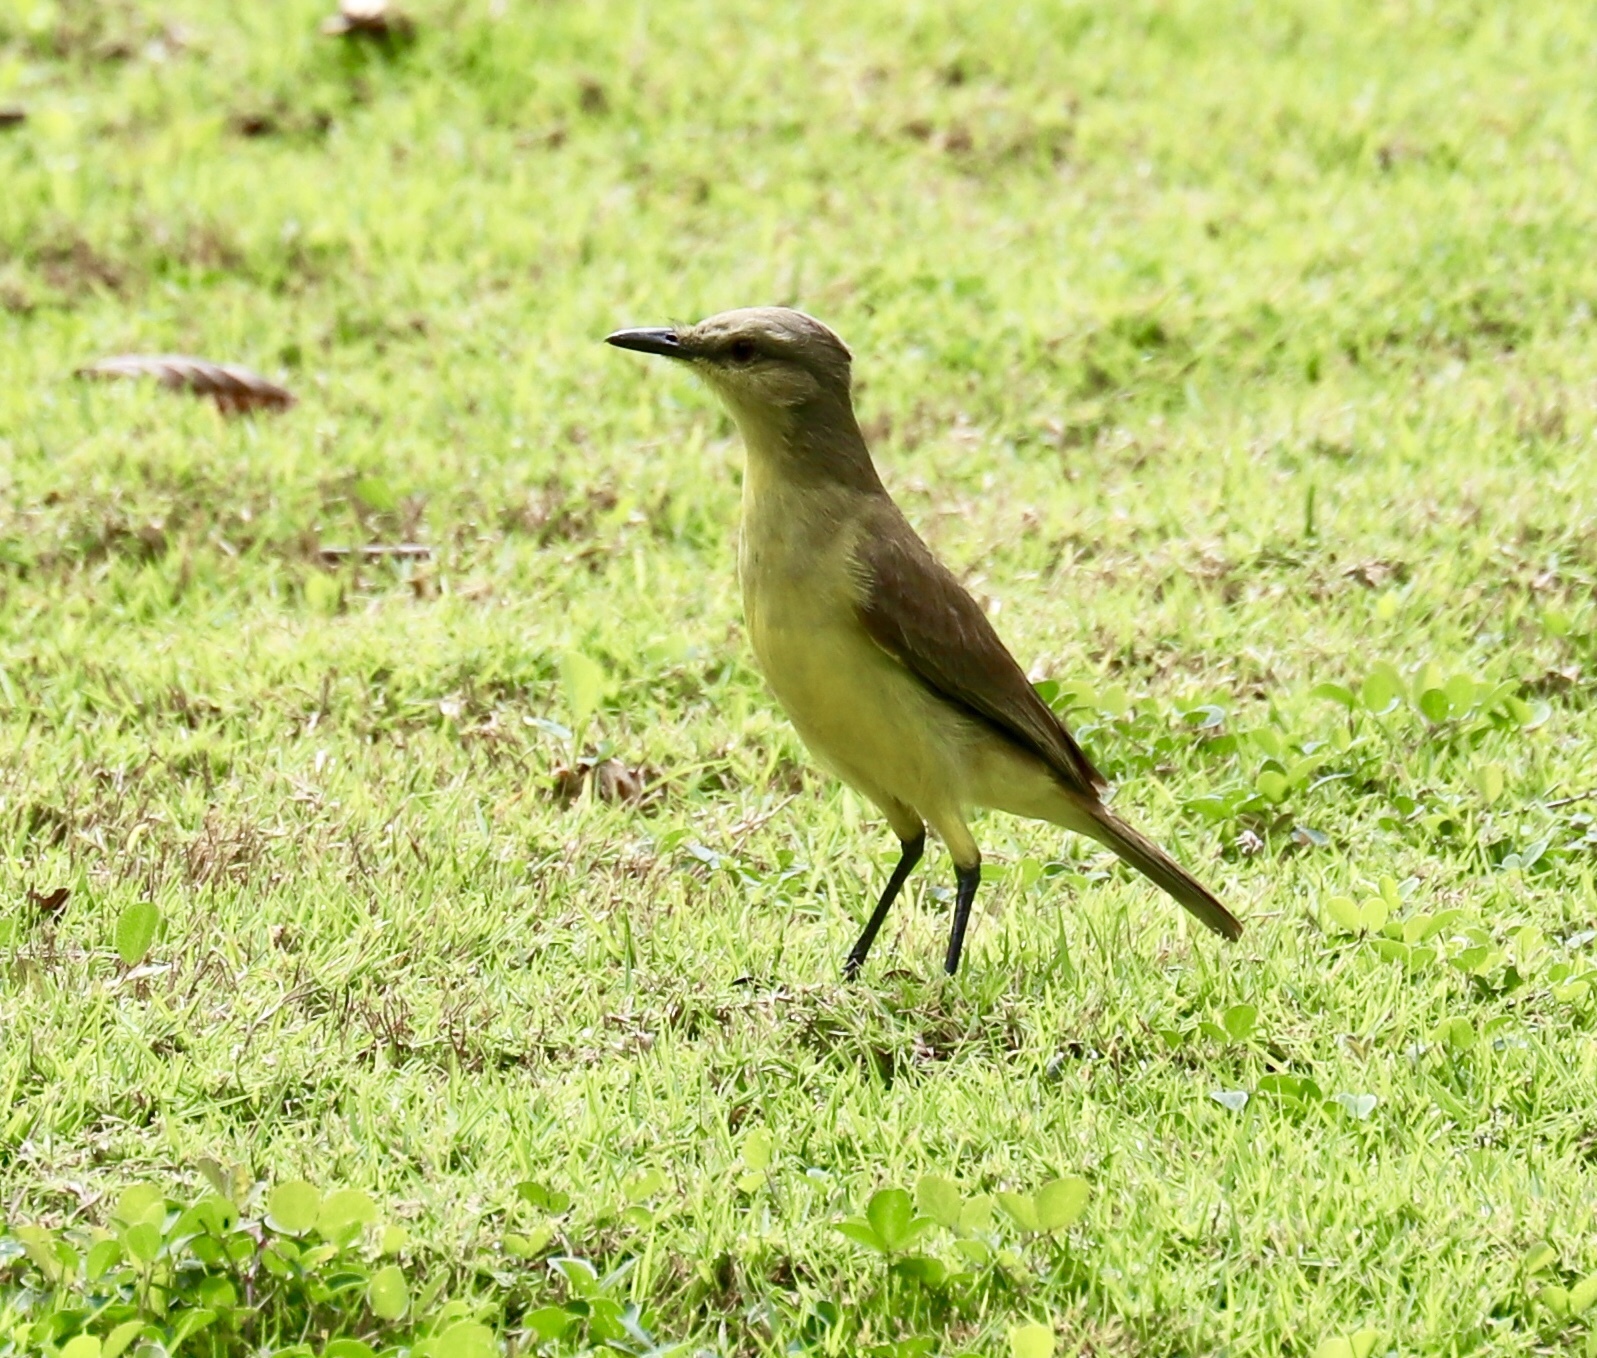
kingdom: Animalia
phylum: Chordata
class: Aves
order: Passeriformes
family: Tyrannidae
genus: Machetornis
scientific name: Machetornis rixosa
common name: Cattle tyrant
